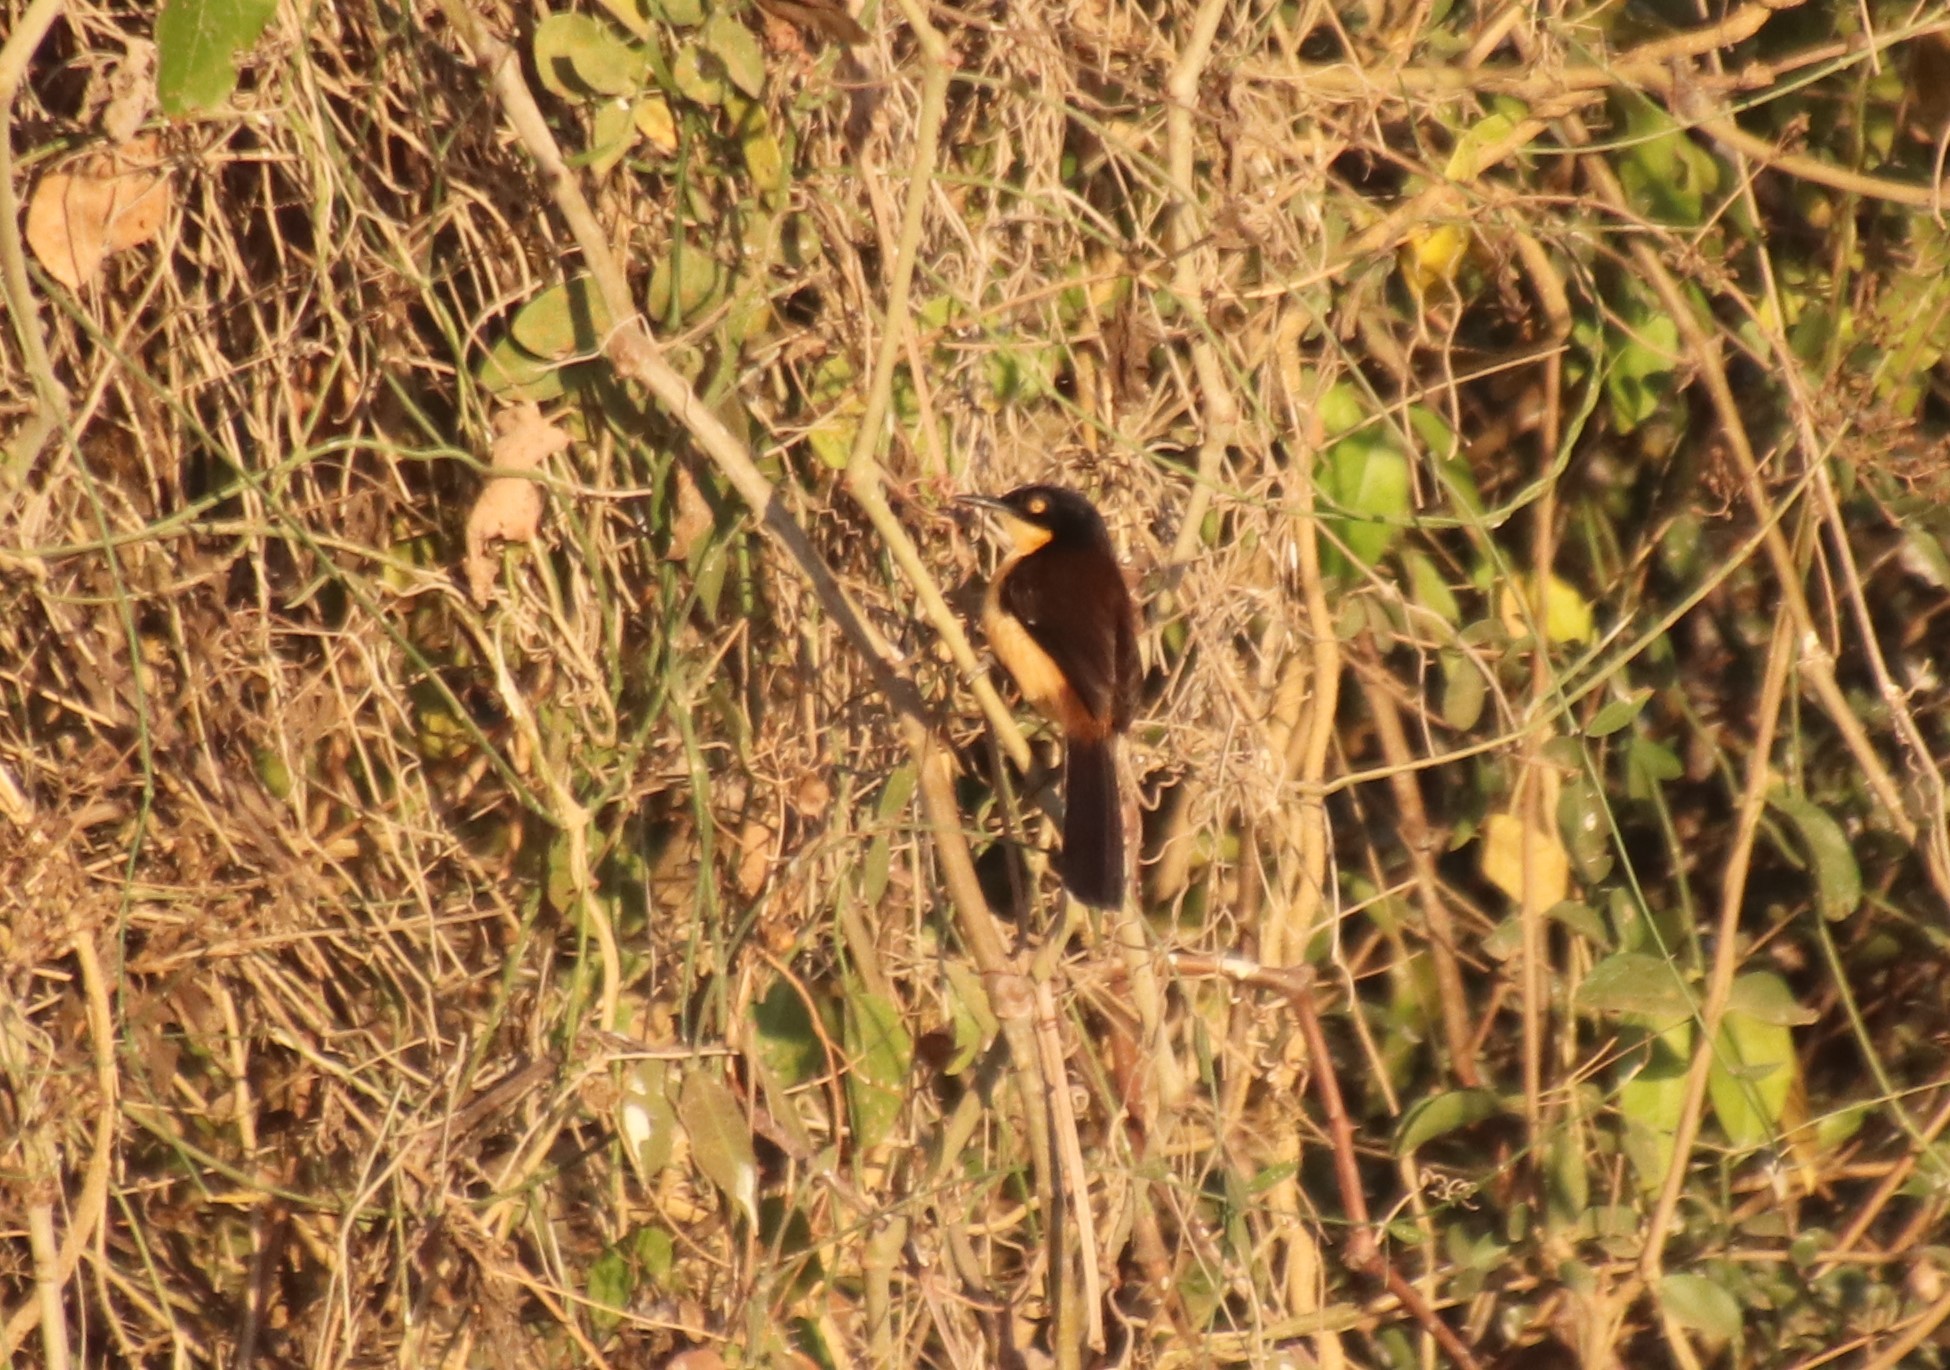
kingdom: Animalia
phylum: Chordata
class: Aves
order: Passeriformes
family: Donacobiidae
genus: Donacobius
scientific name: Donacobius atricapilla
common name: Black-capped donacobius
